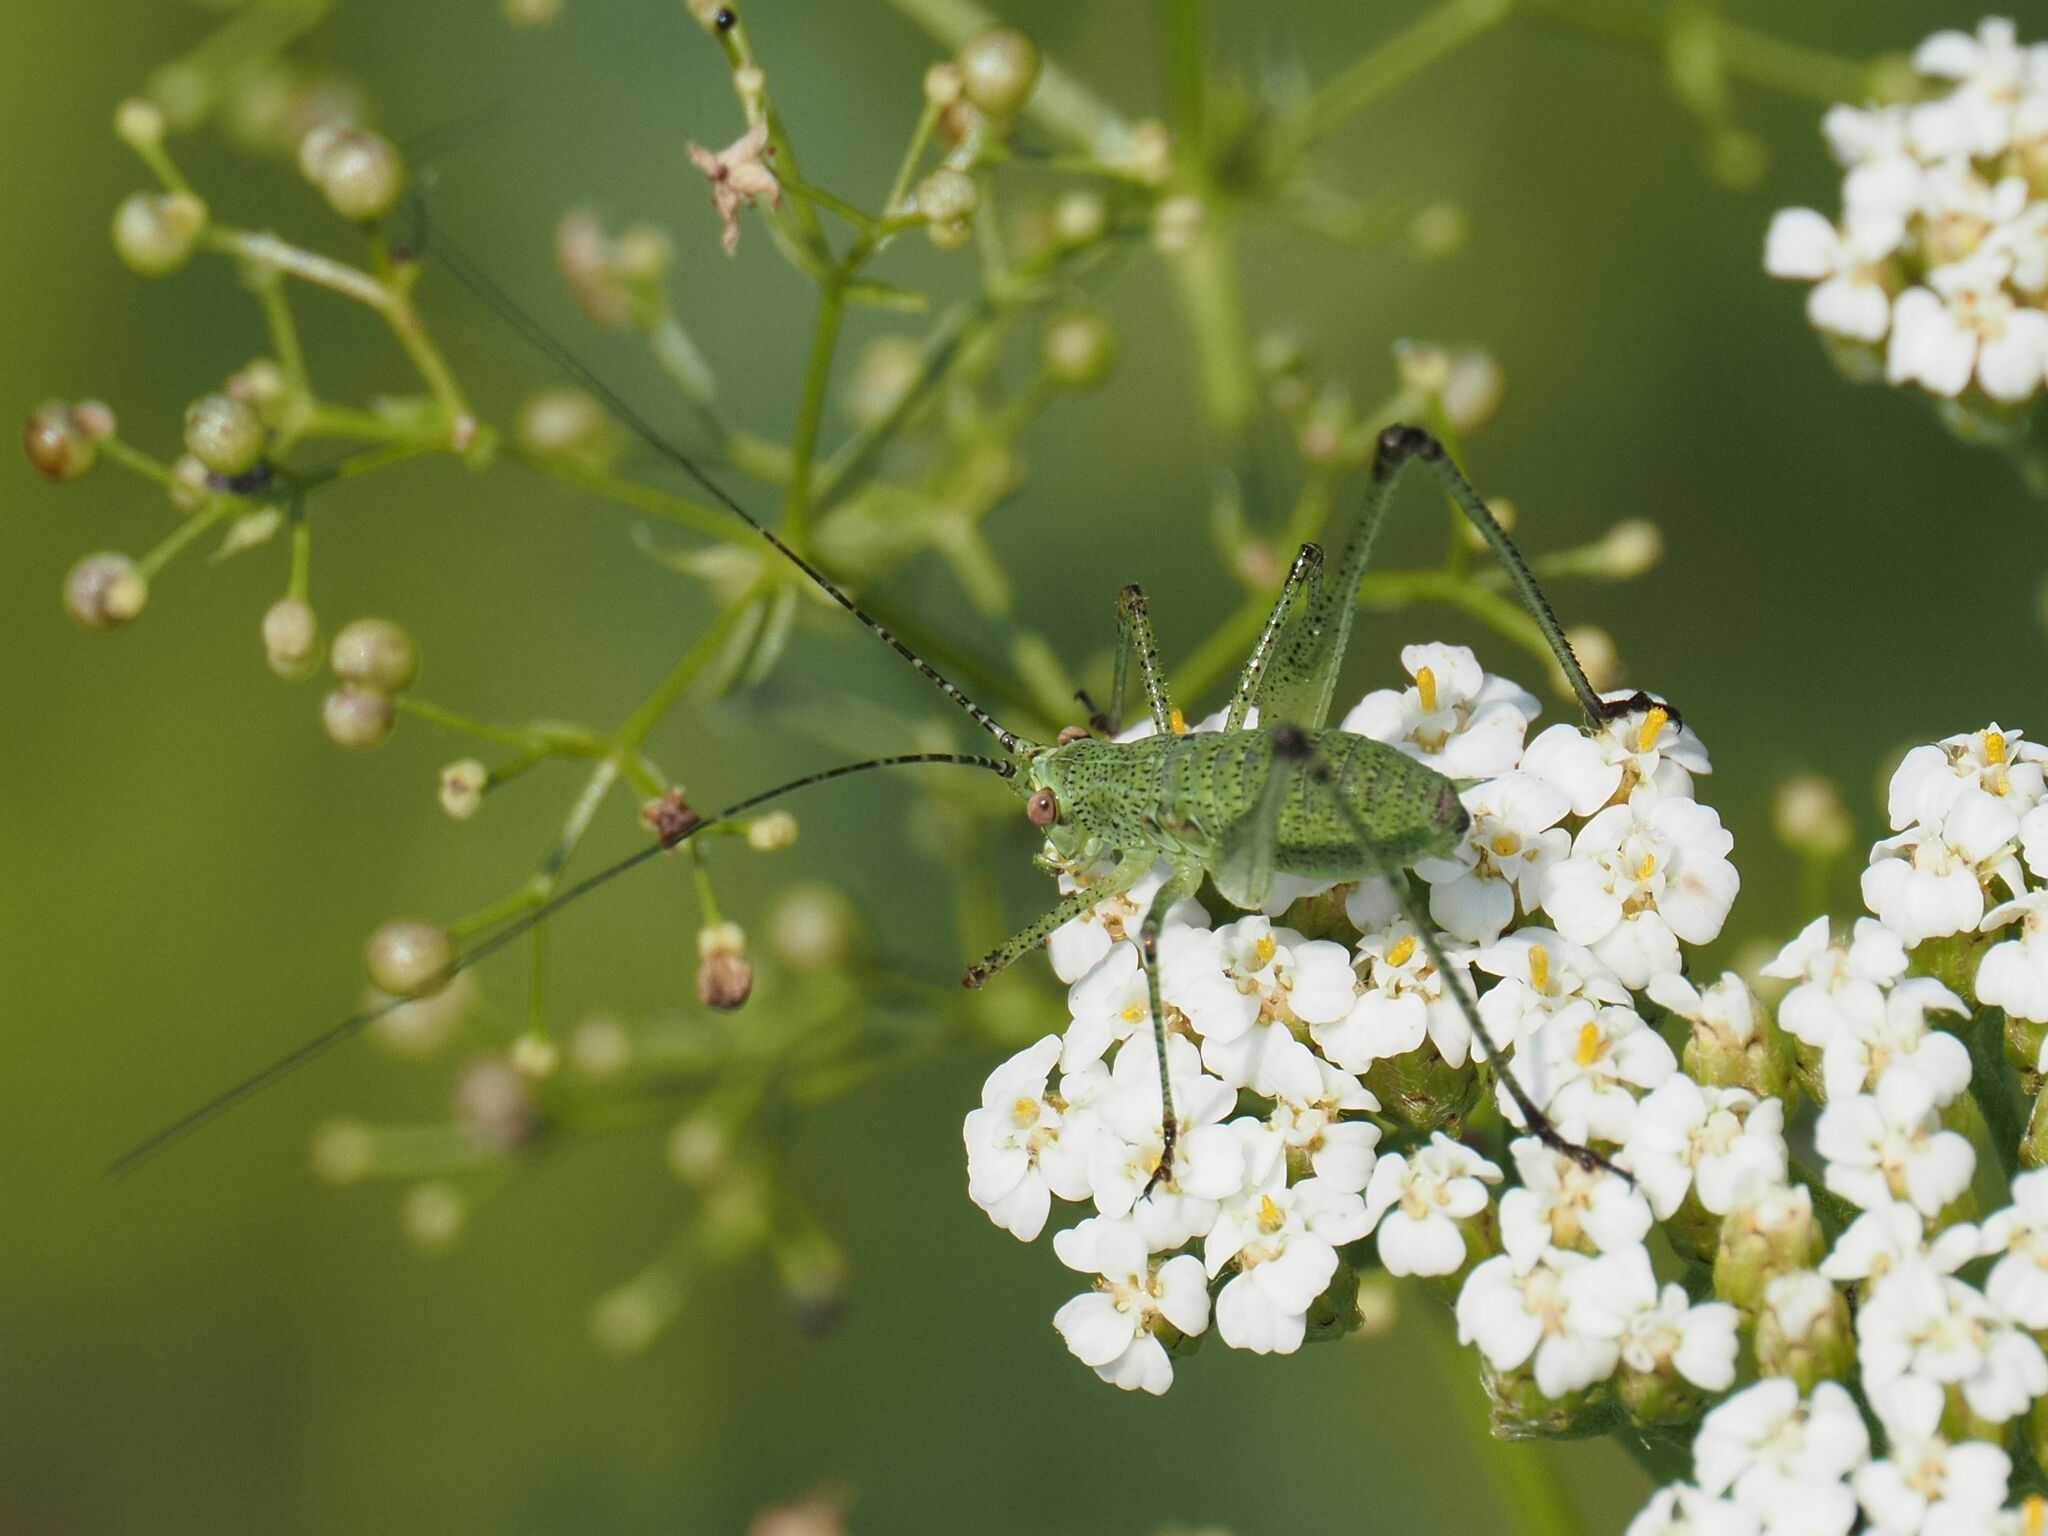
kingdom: Animalia
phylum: Arthropoda
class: Insecta
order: Orthoptera
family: Tettigoniidae
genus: Phaneroptera
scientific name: Phaneroptera nana
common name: Southern sickle bush-cricket
